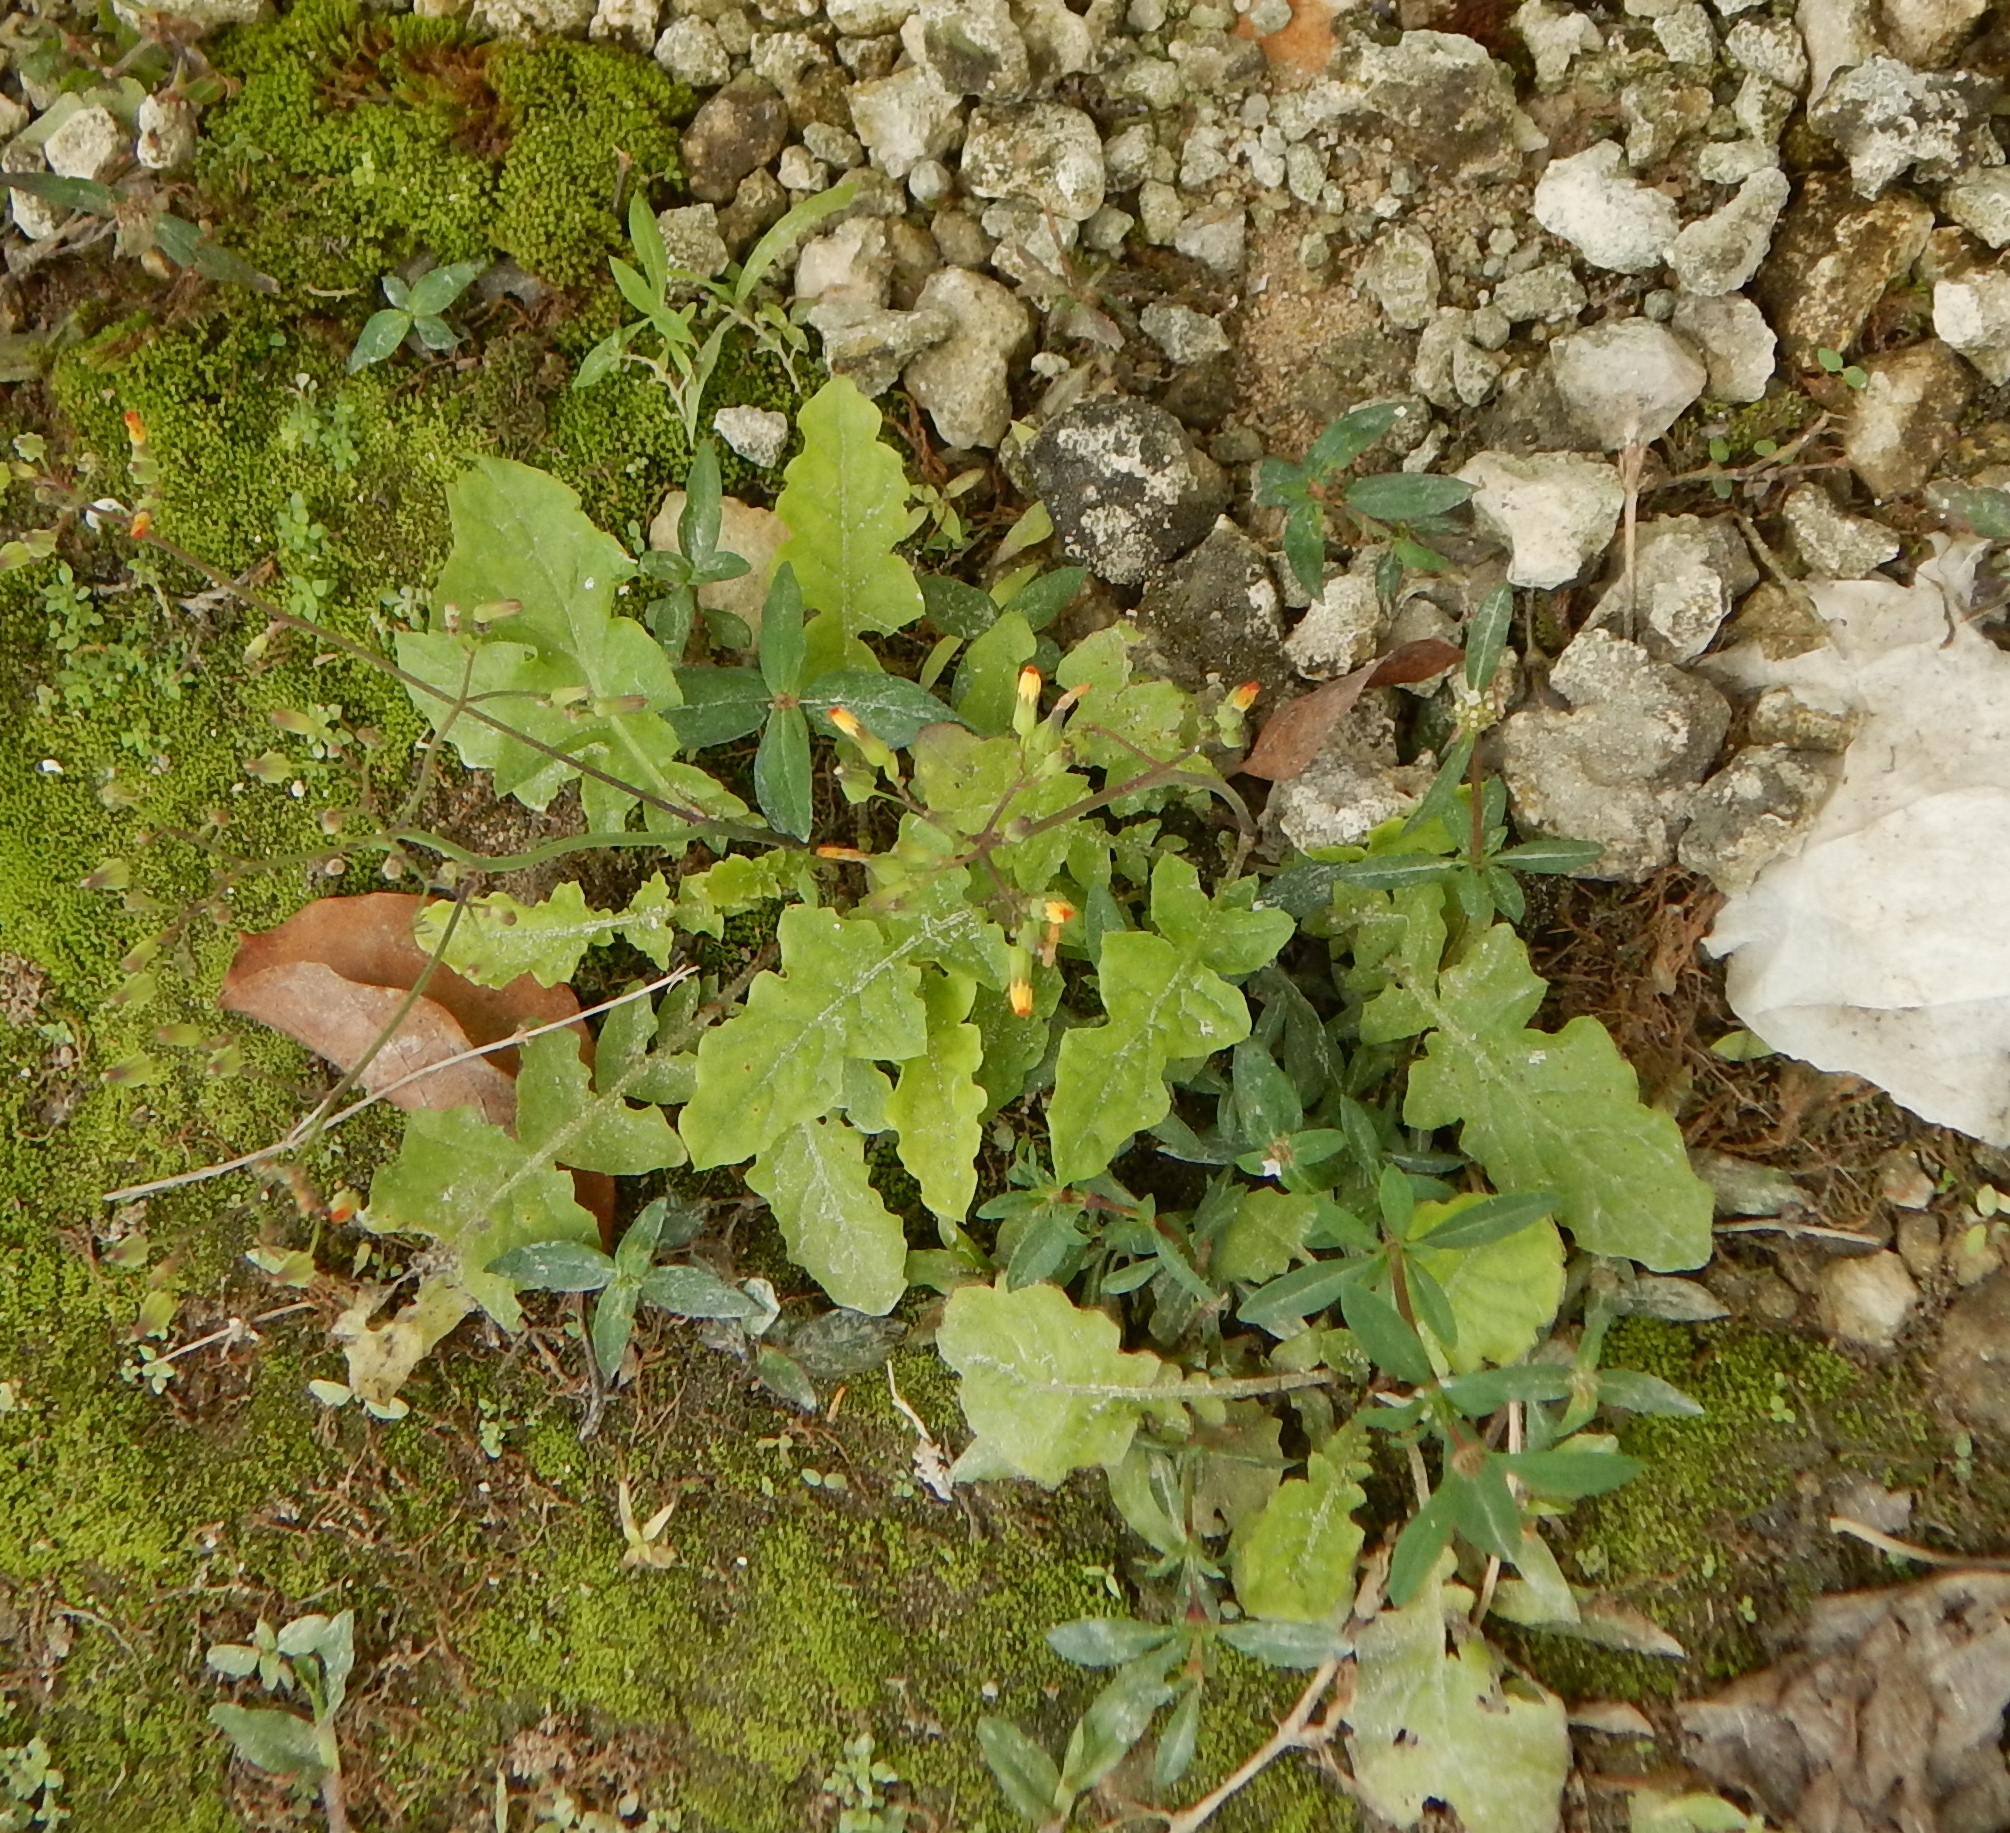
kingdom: Plantae
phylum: Tracheophyta
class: Magnoliopsida
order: Asterales
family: Asteraceae
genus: Youngia
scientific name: Youngia japonica
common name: Oriental false hawksbeard
